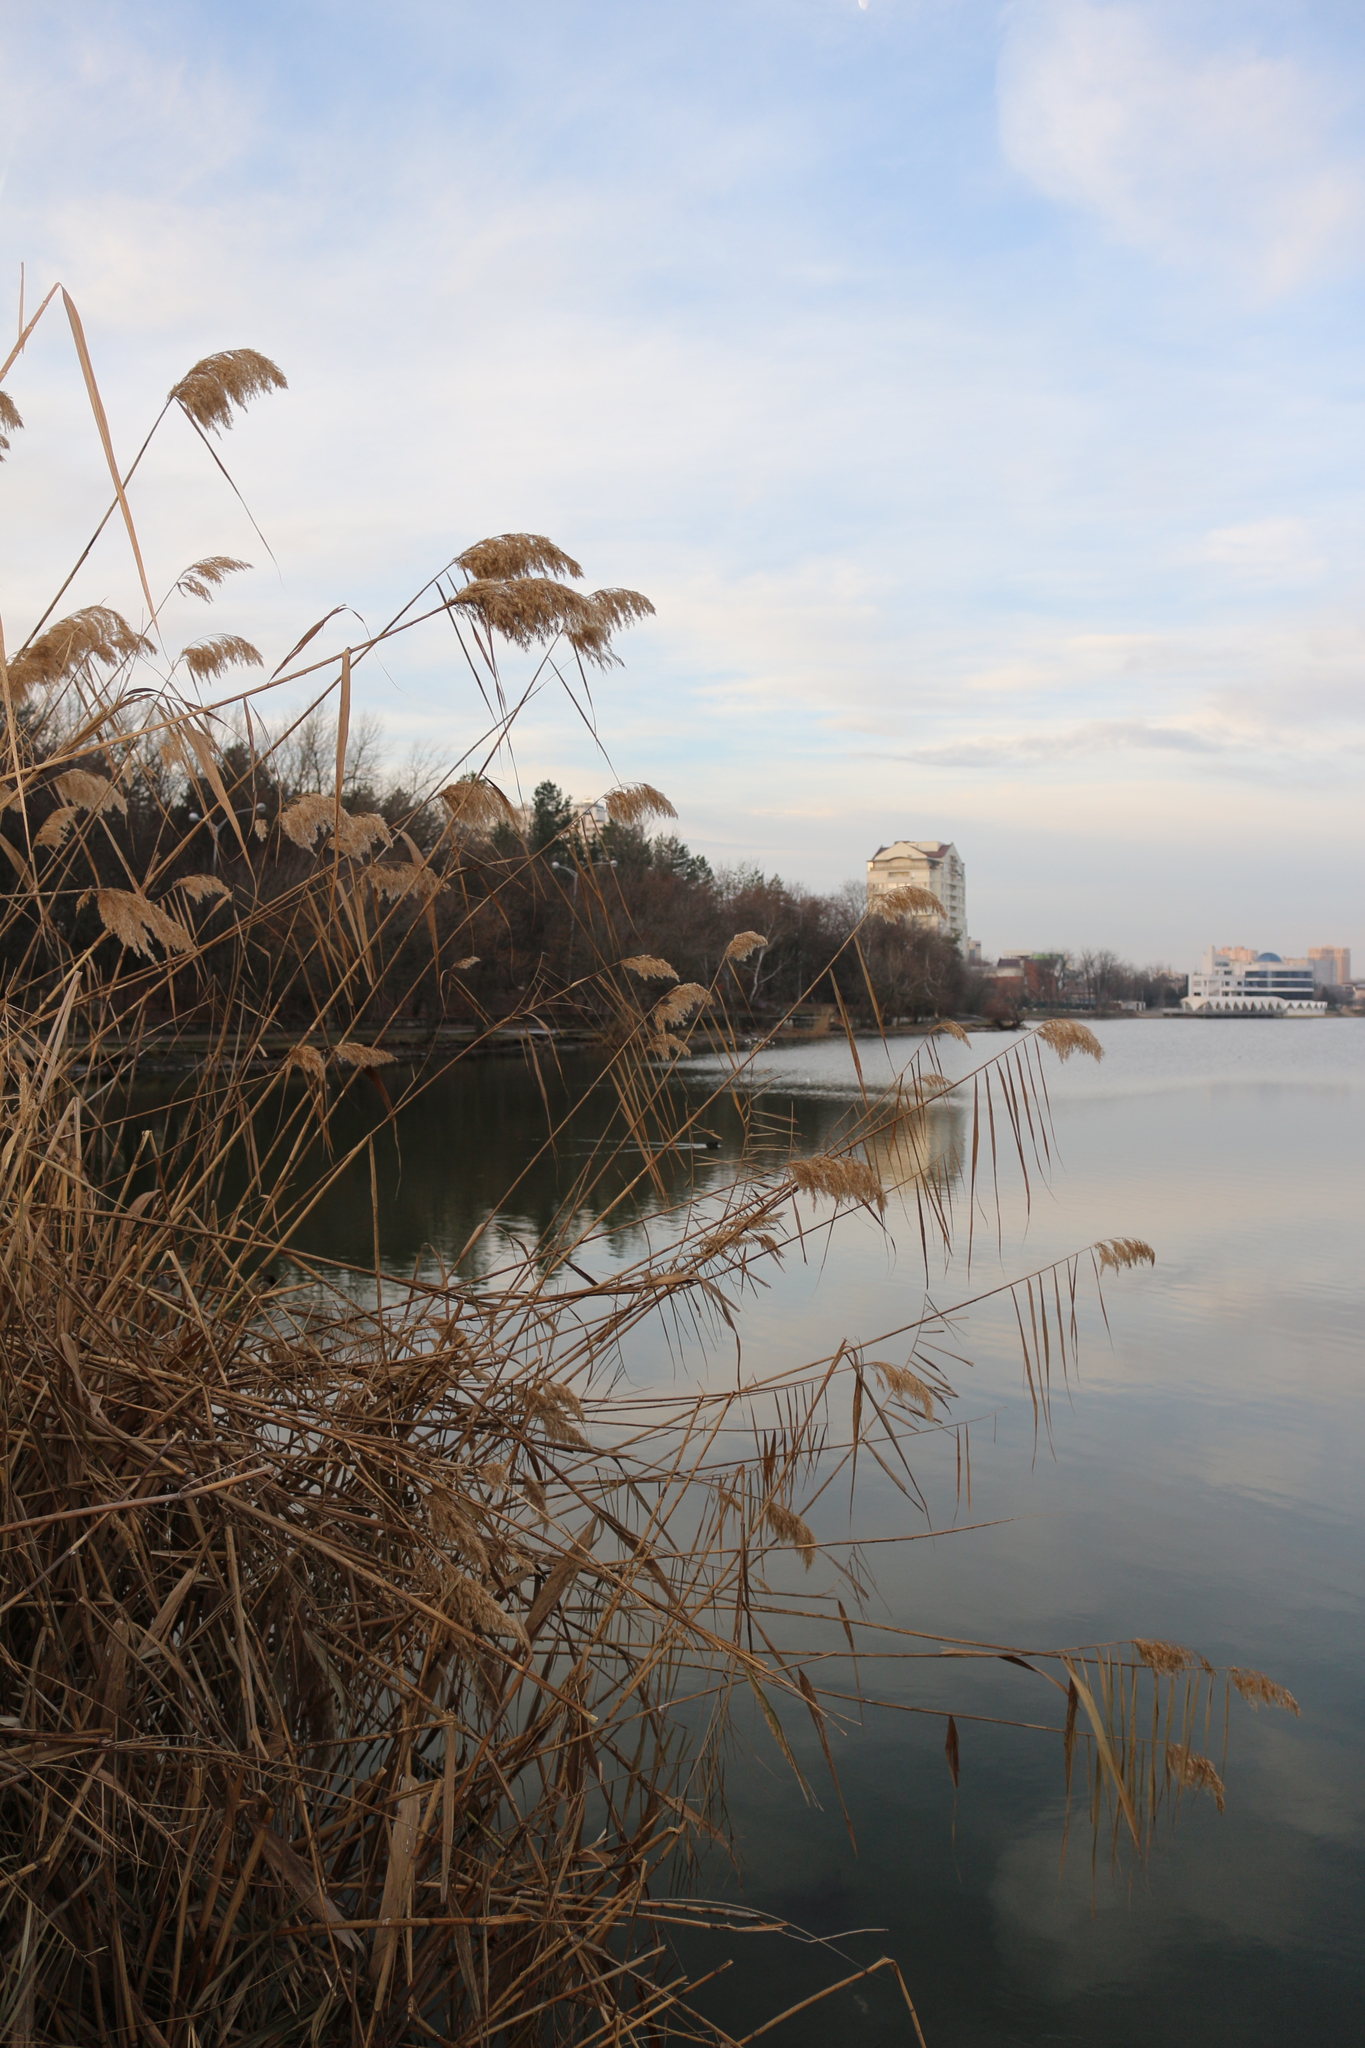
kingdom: Plantae
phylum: Tracheophyta
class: Liliopsida
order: Poales
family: Poaceae
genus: Phragmites
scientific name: Phragmites australis
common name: Common reed
